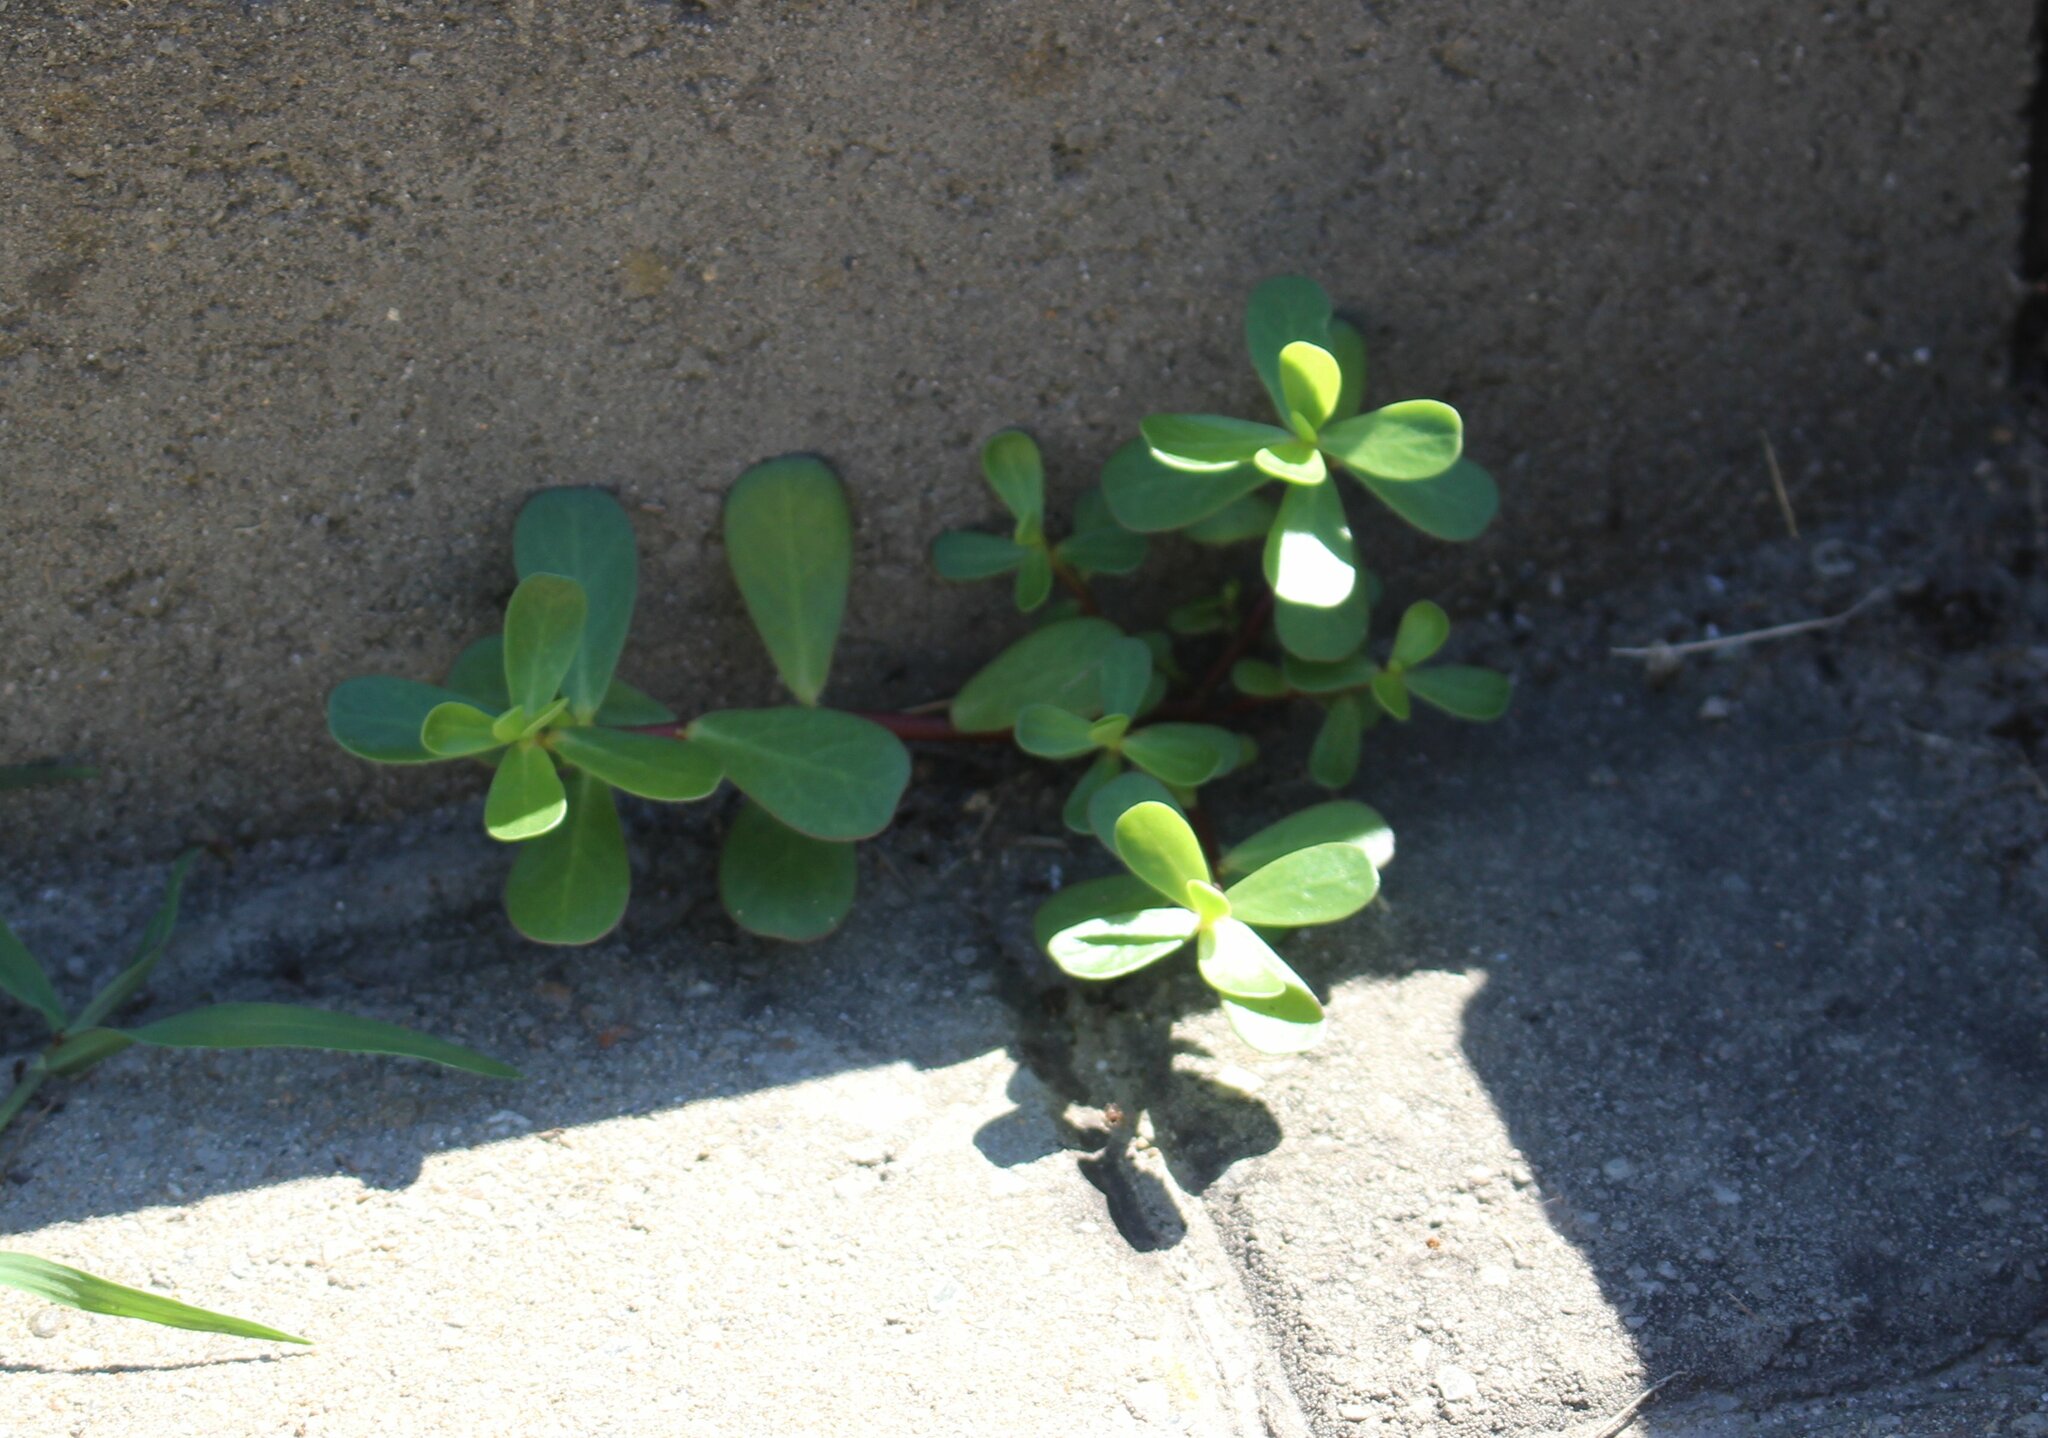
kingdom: Plantae
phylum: Tracheophyta
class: Magnoliopsida
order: Caryophyllales
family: Portulacaceae
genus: Portulaca
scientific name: Portulaca oleracea
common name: Common purslane
